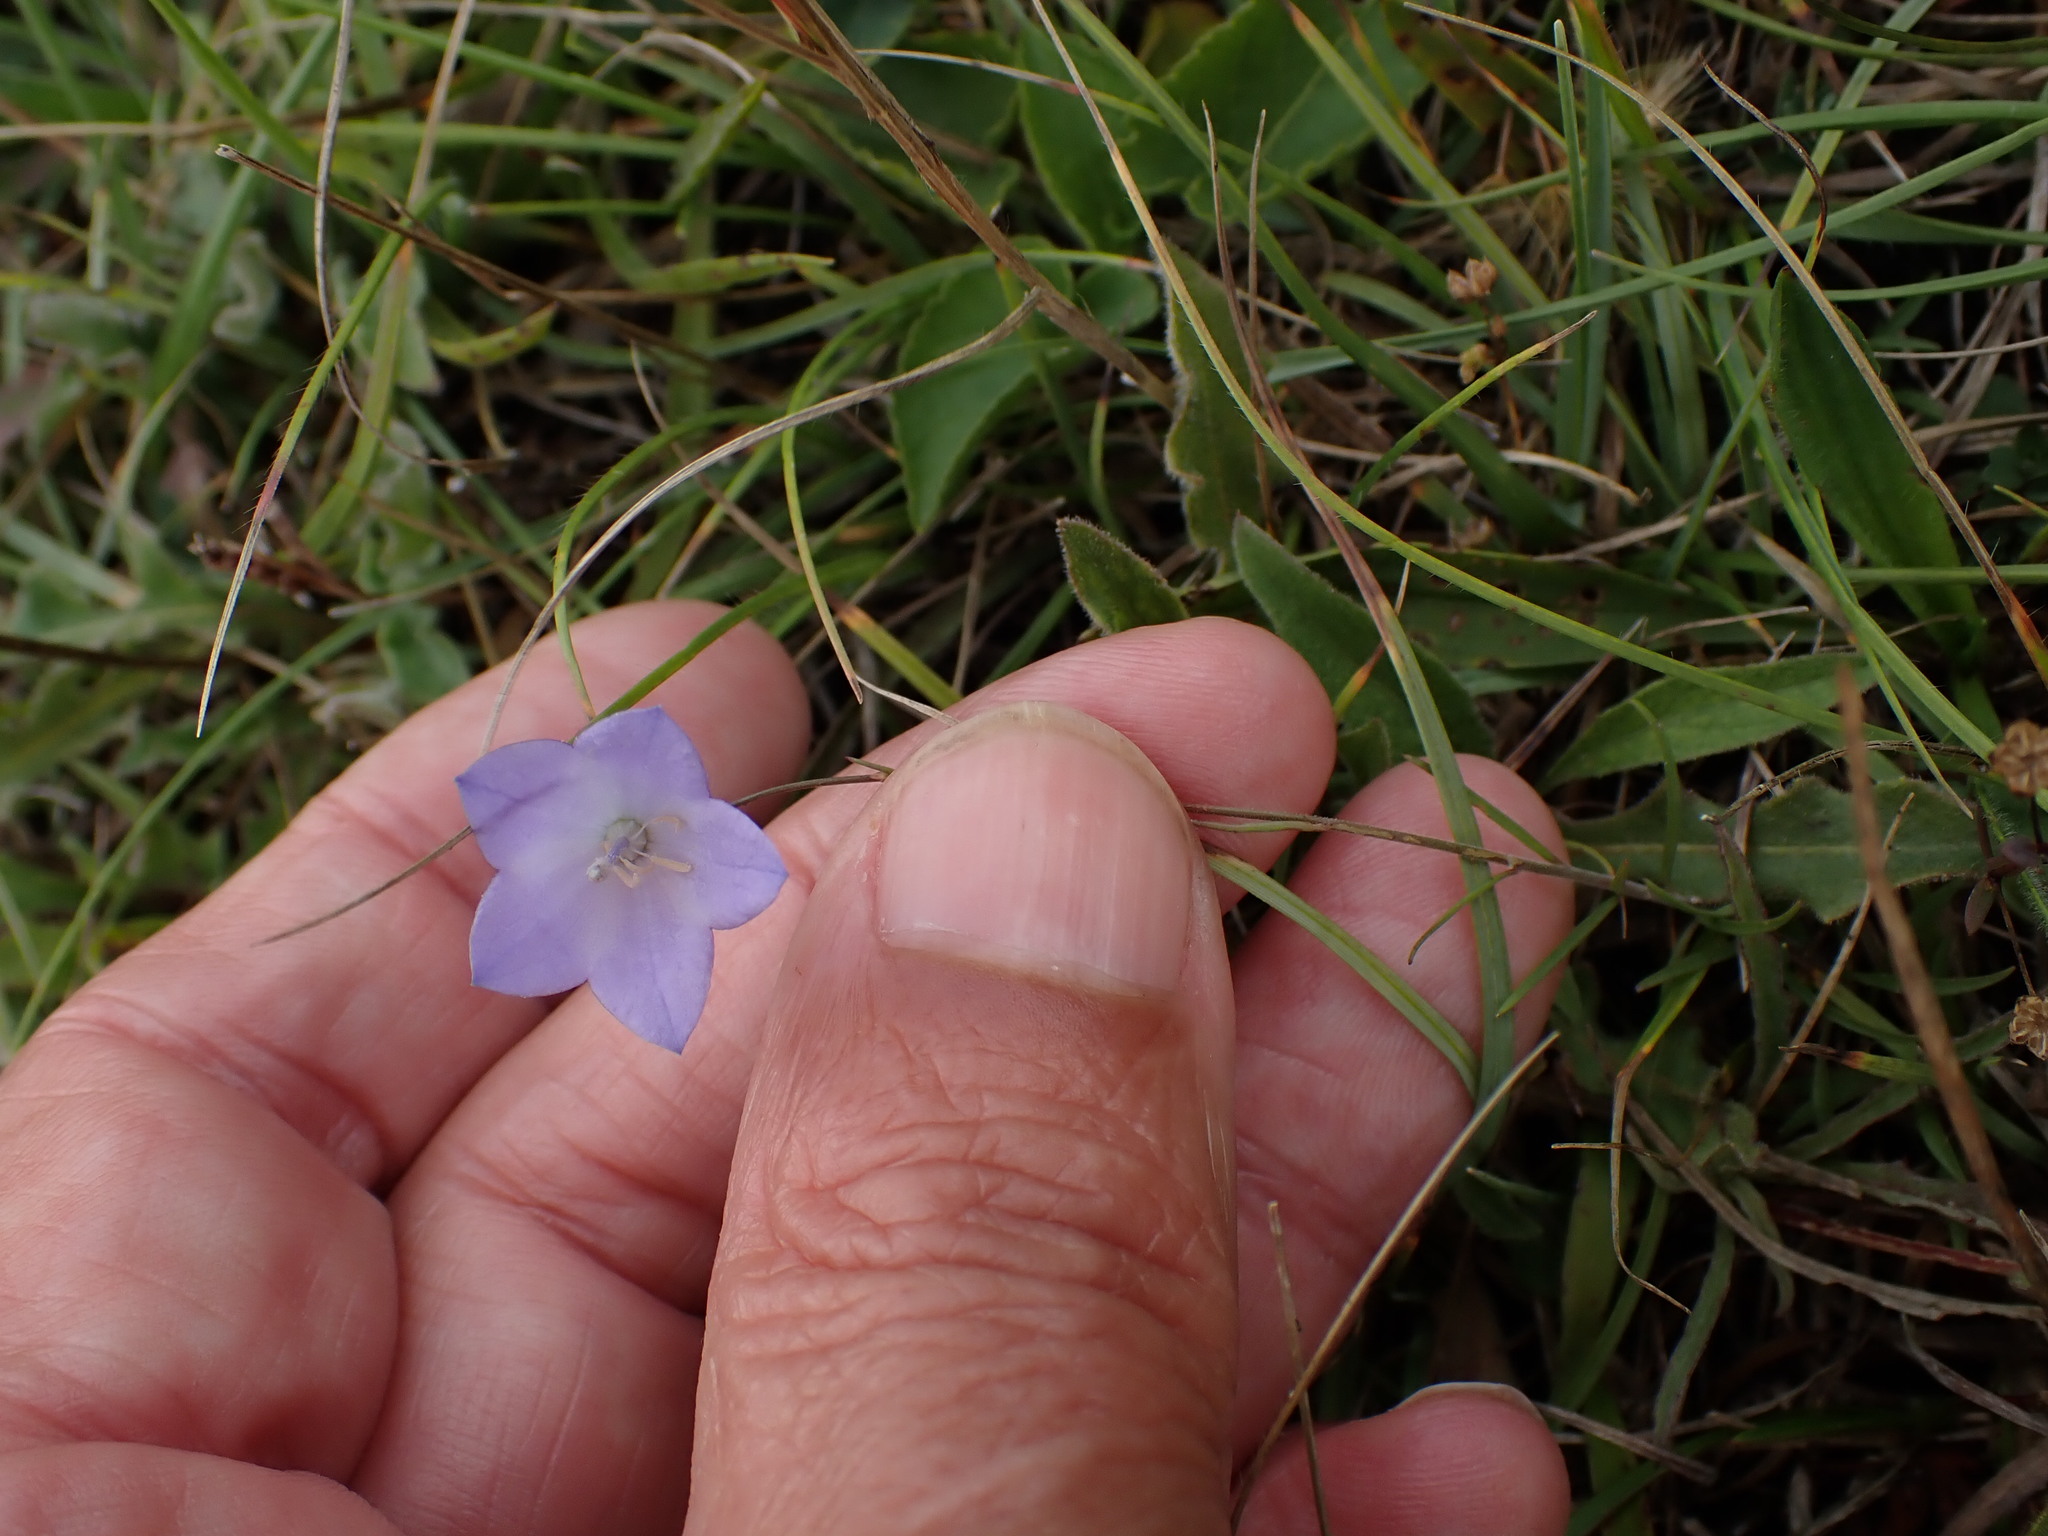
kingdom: Plantae
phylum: Tracheophyta
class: Magnoliopsida
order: Asterales
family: Campanulaceae
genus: Campanula
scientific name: Campanula rotundifolia
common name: Harebell
